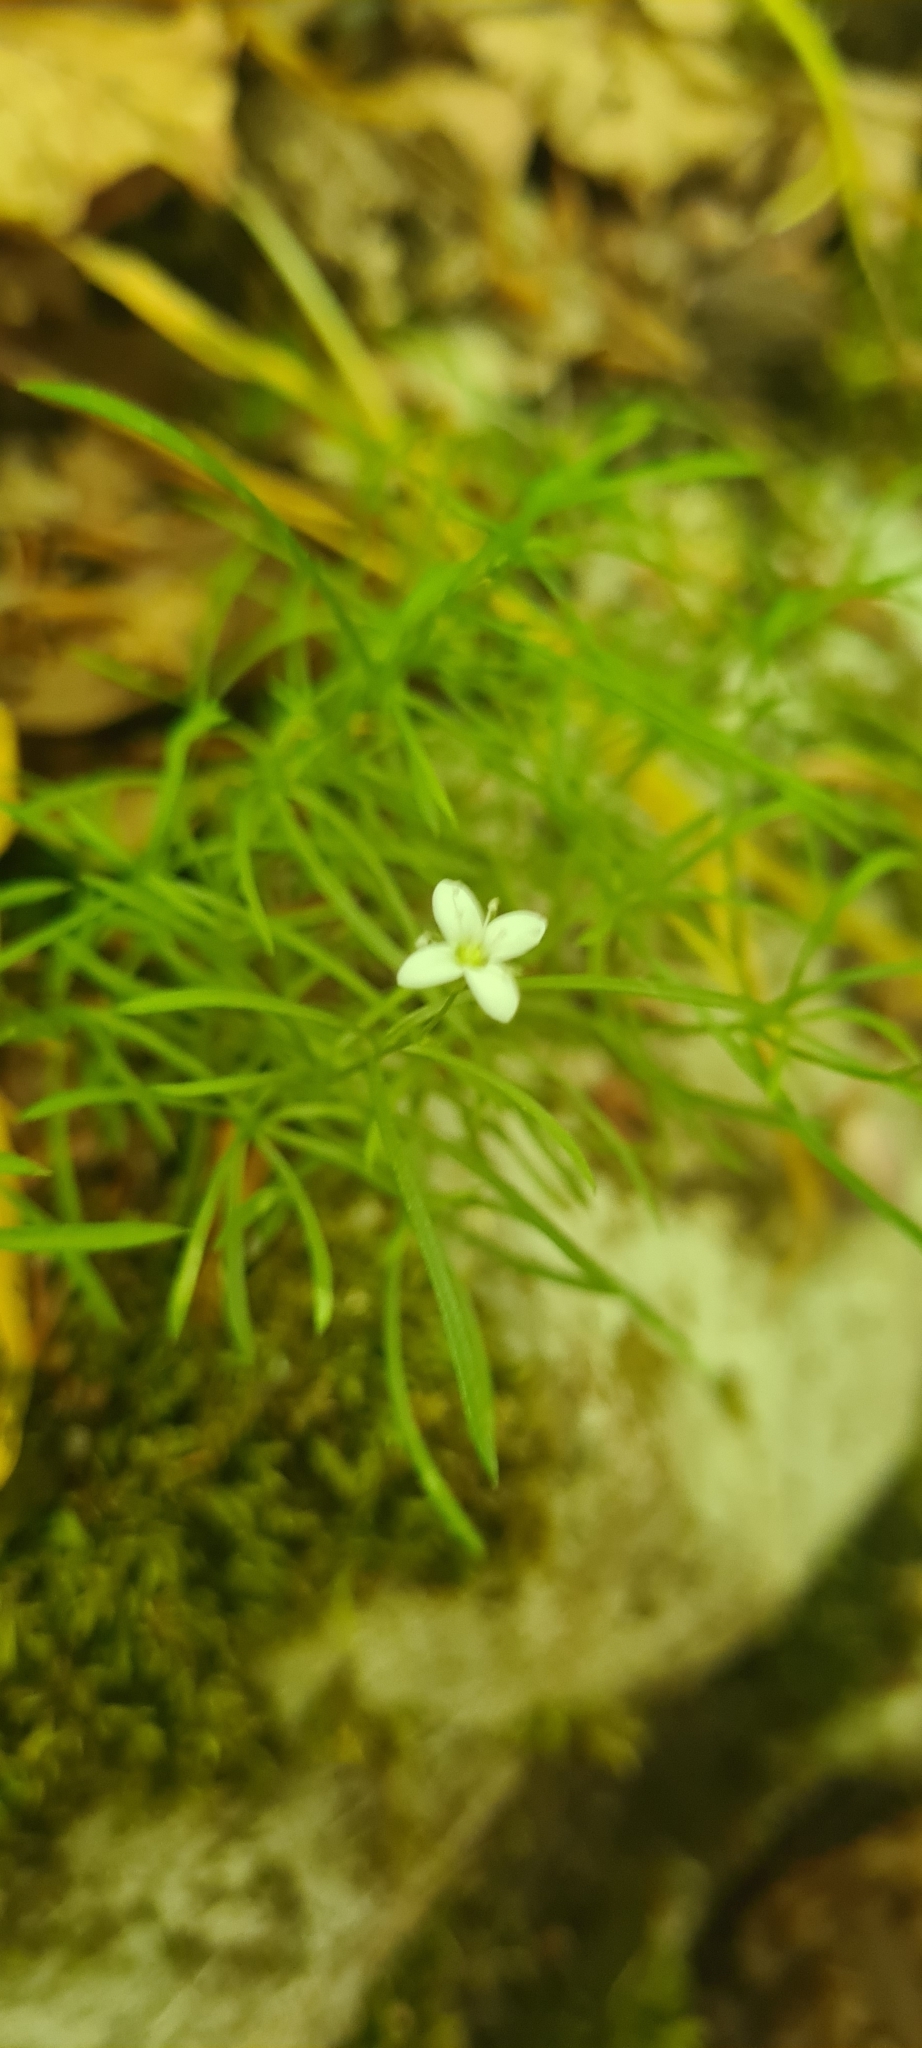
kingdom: Plantae
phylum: Tracheophyta
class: Magnoliopsida
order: Caryophyllales
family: Caryophyllaceae
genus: Moehringia
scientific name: Moehringia muscosa
